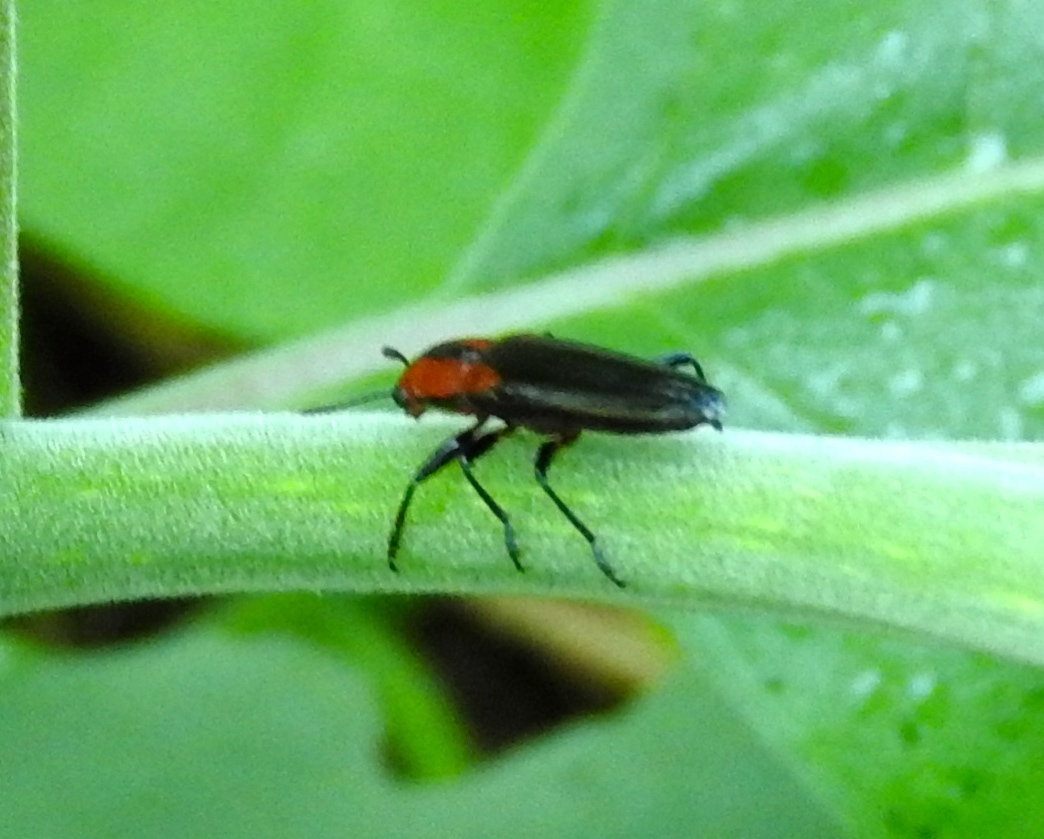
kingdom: Animalia
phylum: Arthropoda
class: Insecta
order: Coleoptera
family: Erotylidae
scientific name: Erotylidae
